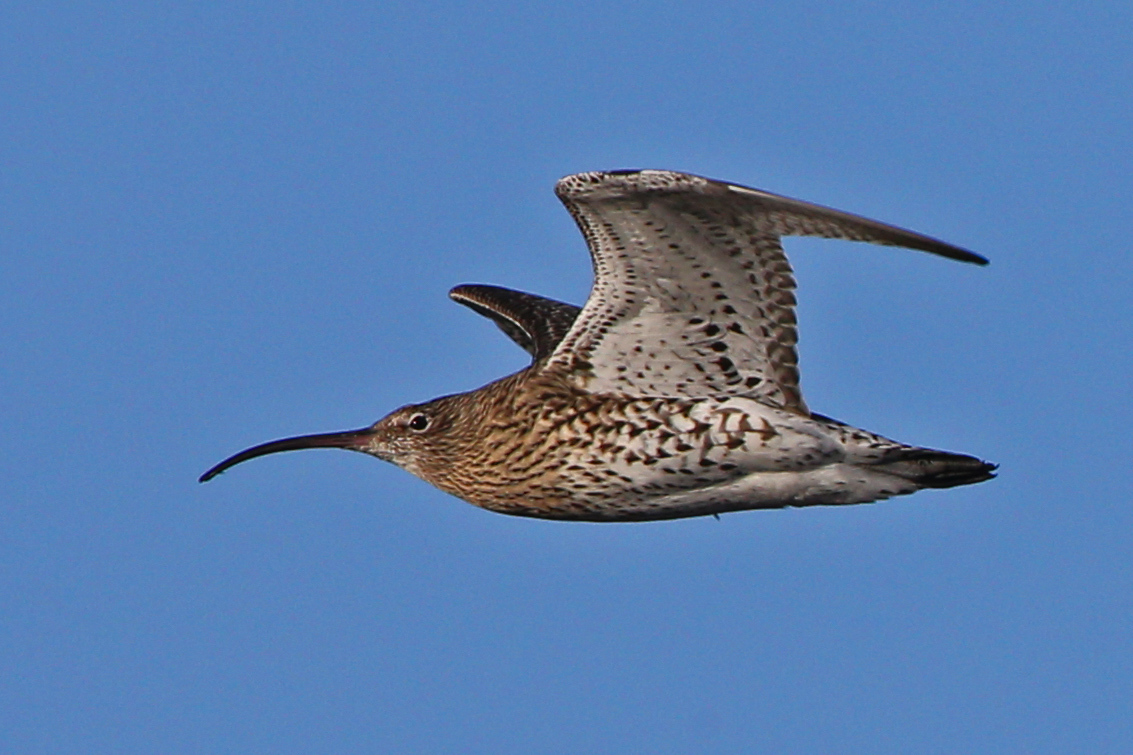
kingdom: Animalia
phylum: Chordata
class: Aves
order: Charadriiformes
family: Scolopacidae
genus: Numenius
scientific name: Numenius arquata
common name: Eurasian curlew
